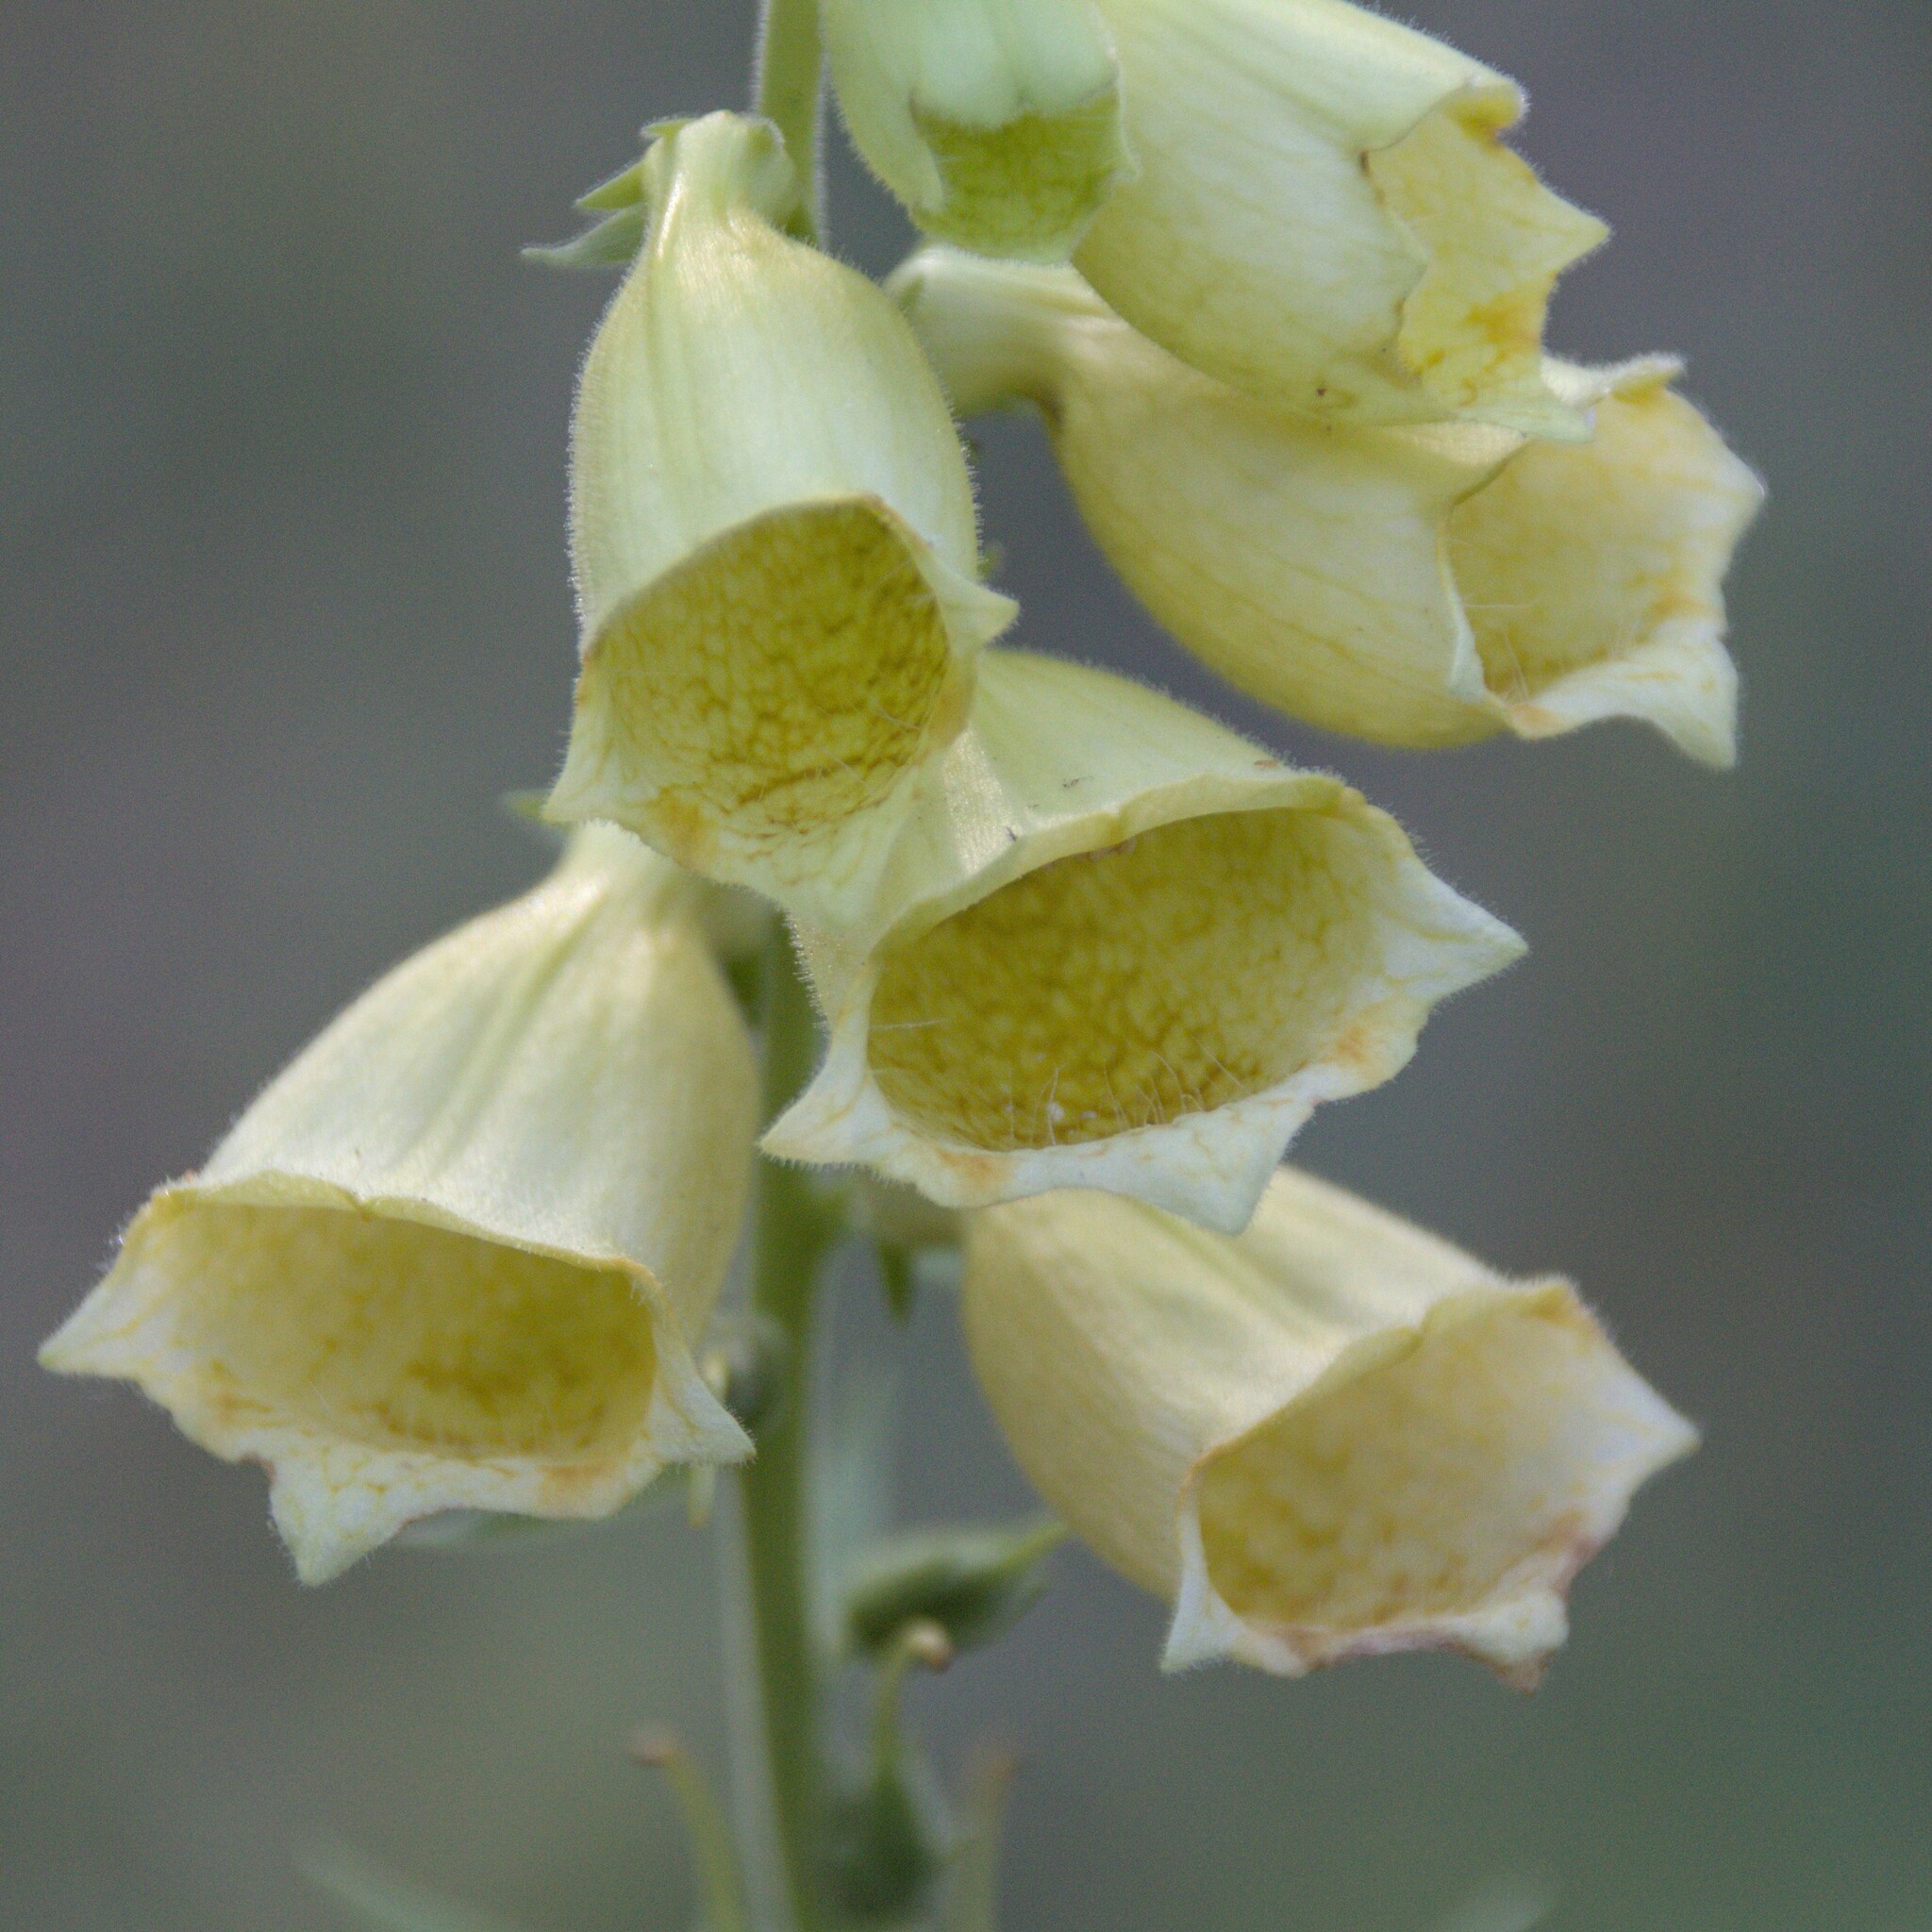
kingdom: Plantae
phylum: Tracheophyta
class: Magnoliopsida
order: Lamiales
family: Plantaginaceae
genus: Digitalis
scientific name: Digitalis grandiflora
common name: Yellow foxglove
